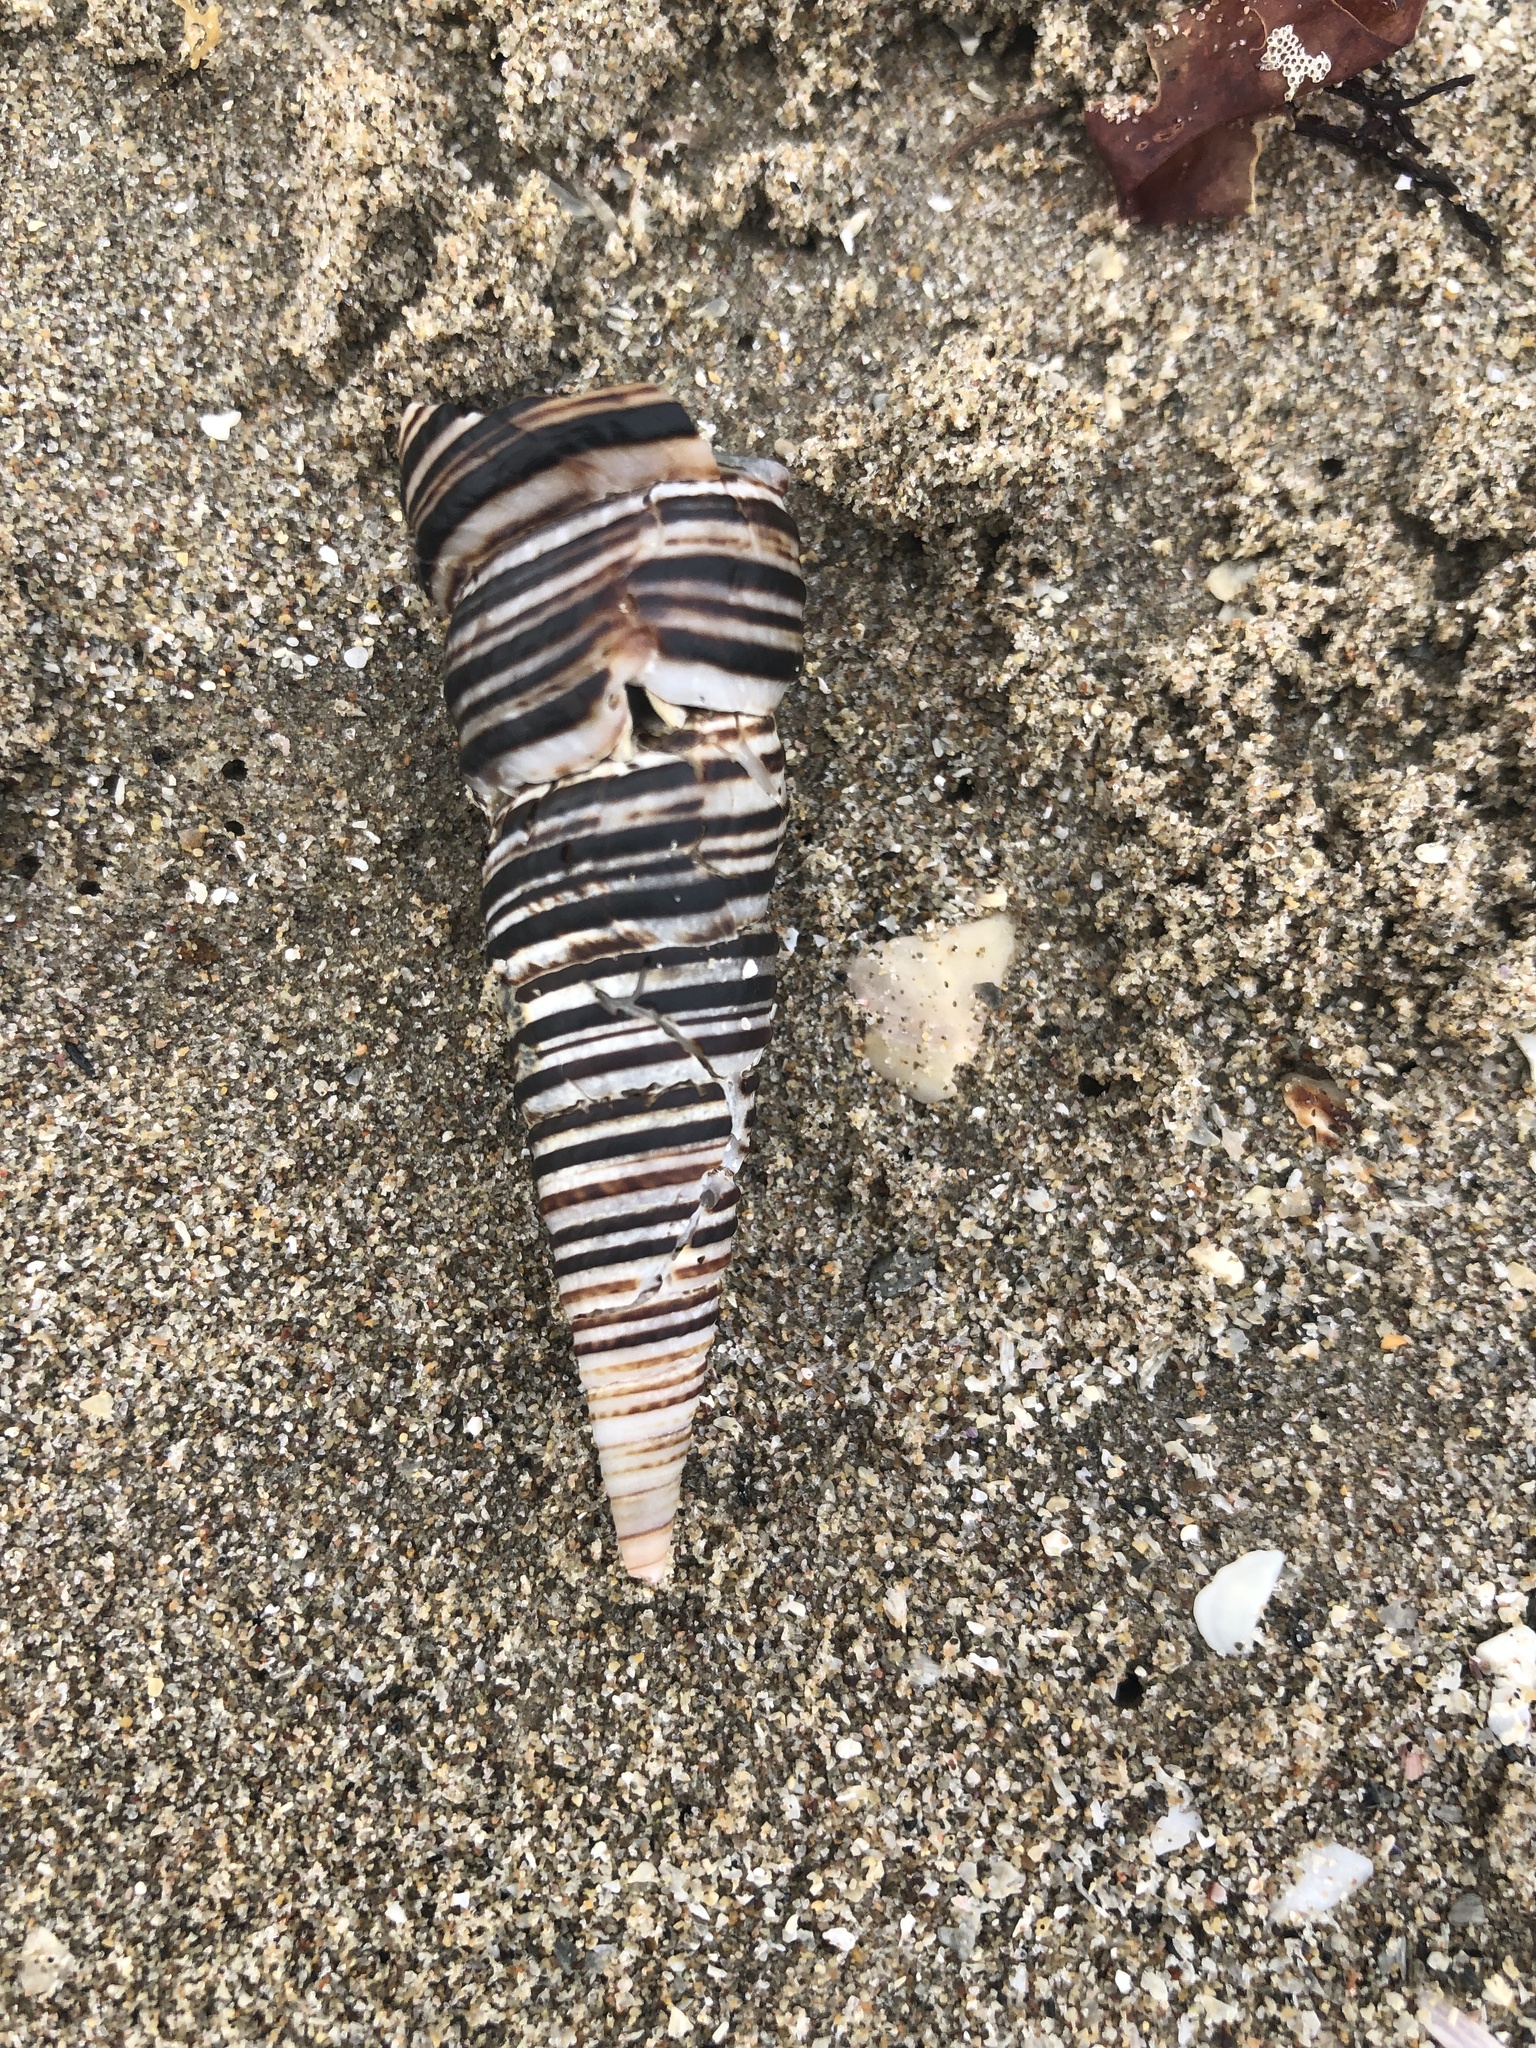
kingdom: Animalia
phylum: Mollusca
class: Gastropoda
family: Turritellidae
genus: Incatella
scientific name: Incatella cingulata
